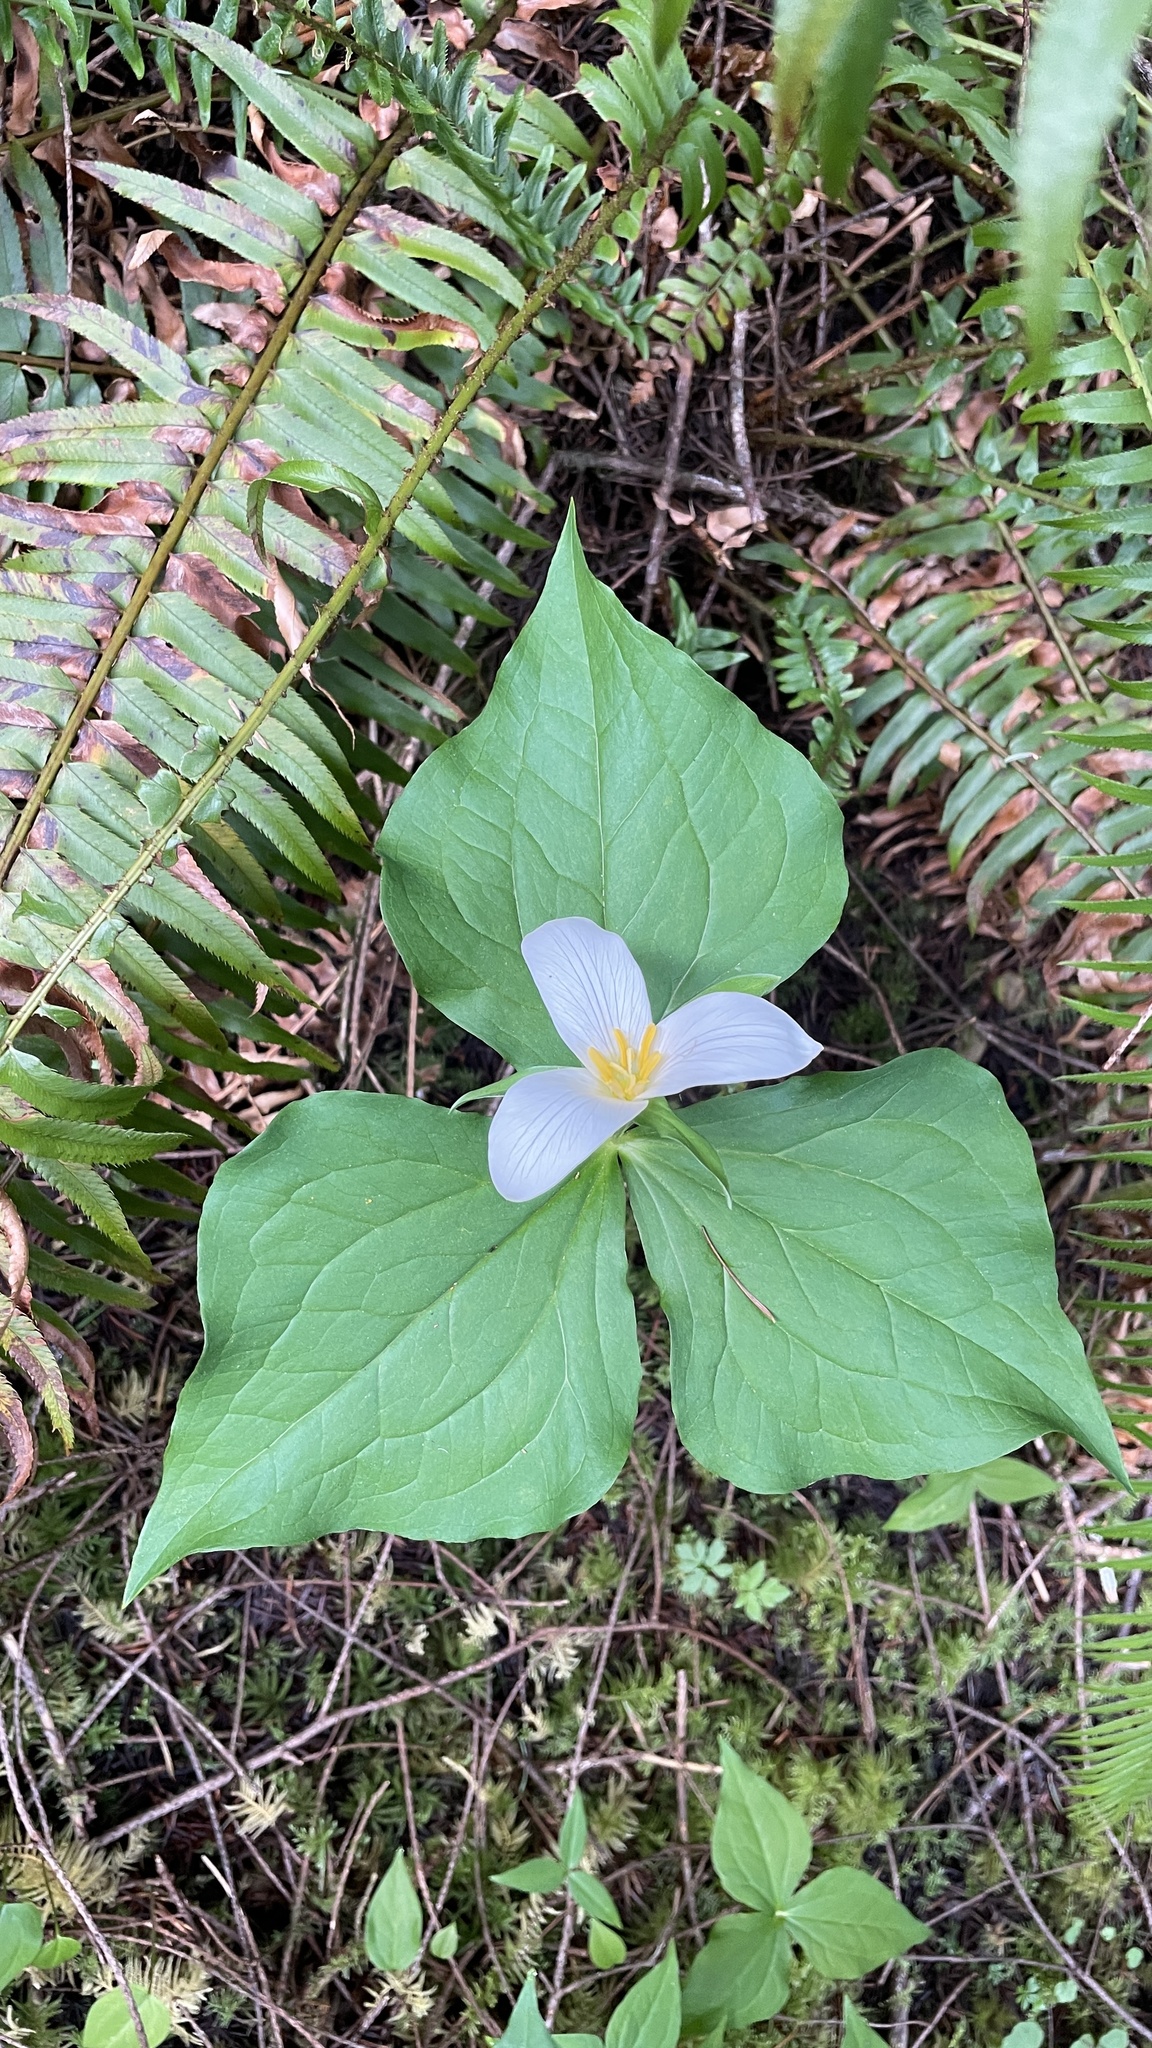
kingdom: Plantae
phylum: Tracheophyta
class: Liliopsida
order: Liliales
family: Melanthiaceae
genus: Trillium
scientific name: Trillium ovatum
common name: Pacific trillium
